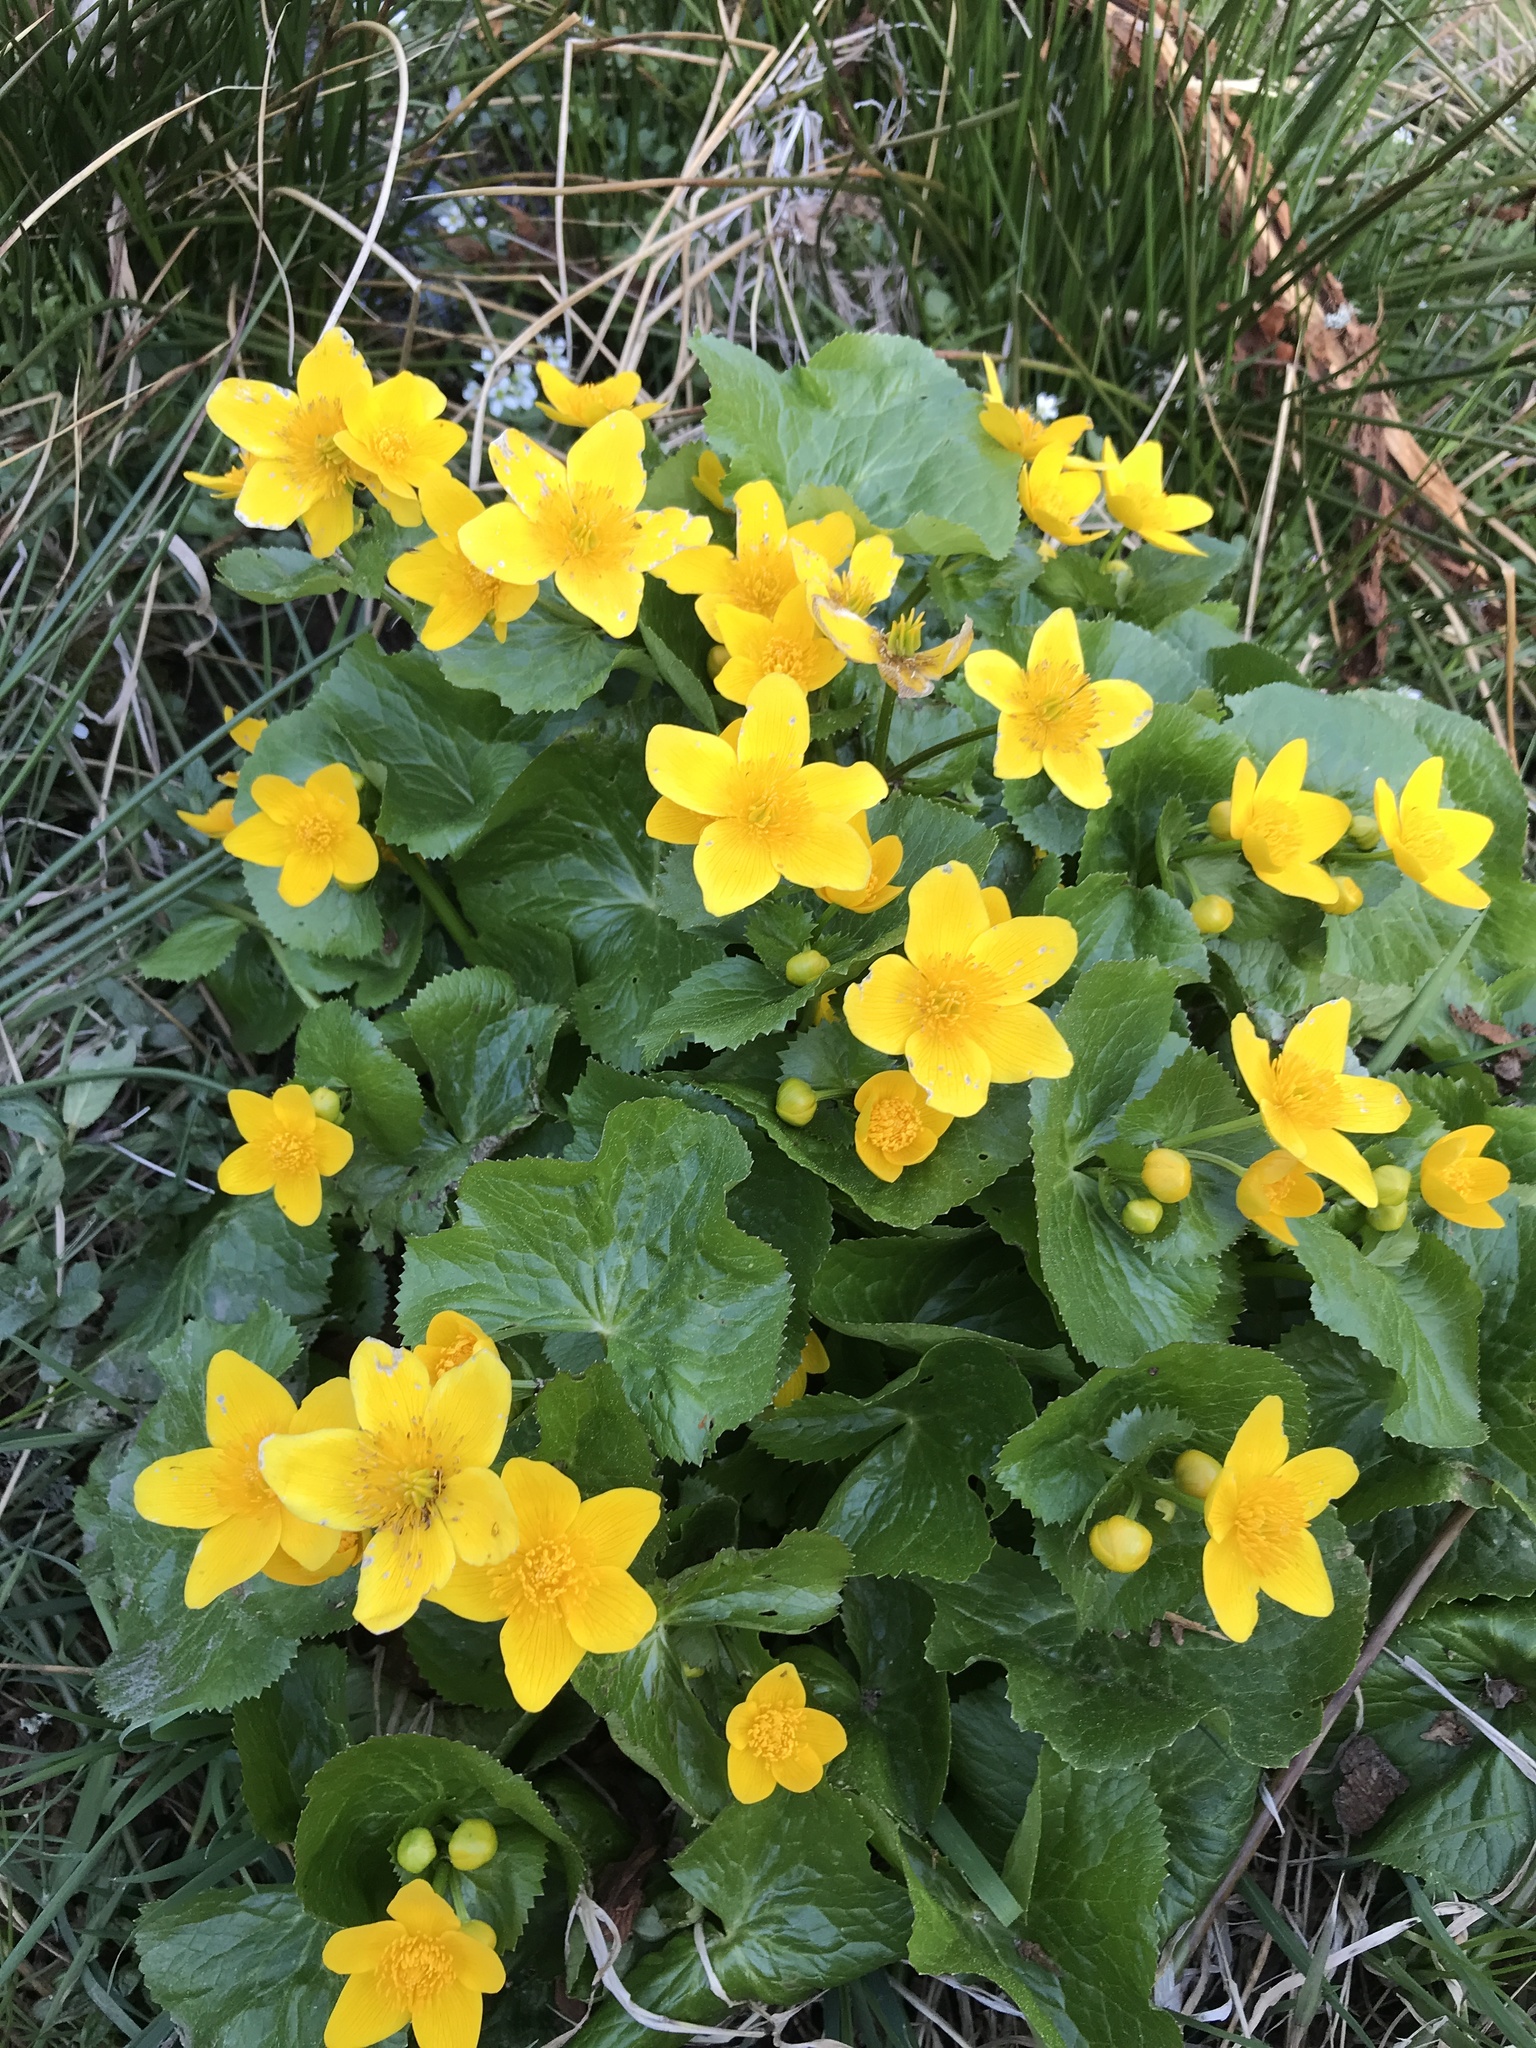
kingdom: Plantae
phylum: Tracheophyta
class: Magnoliopsida
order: Ranunculales
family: Ranunculaceae
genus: Caltha
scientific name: Caltha palustris
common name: Marsh marigold
